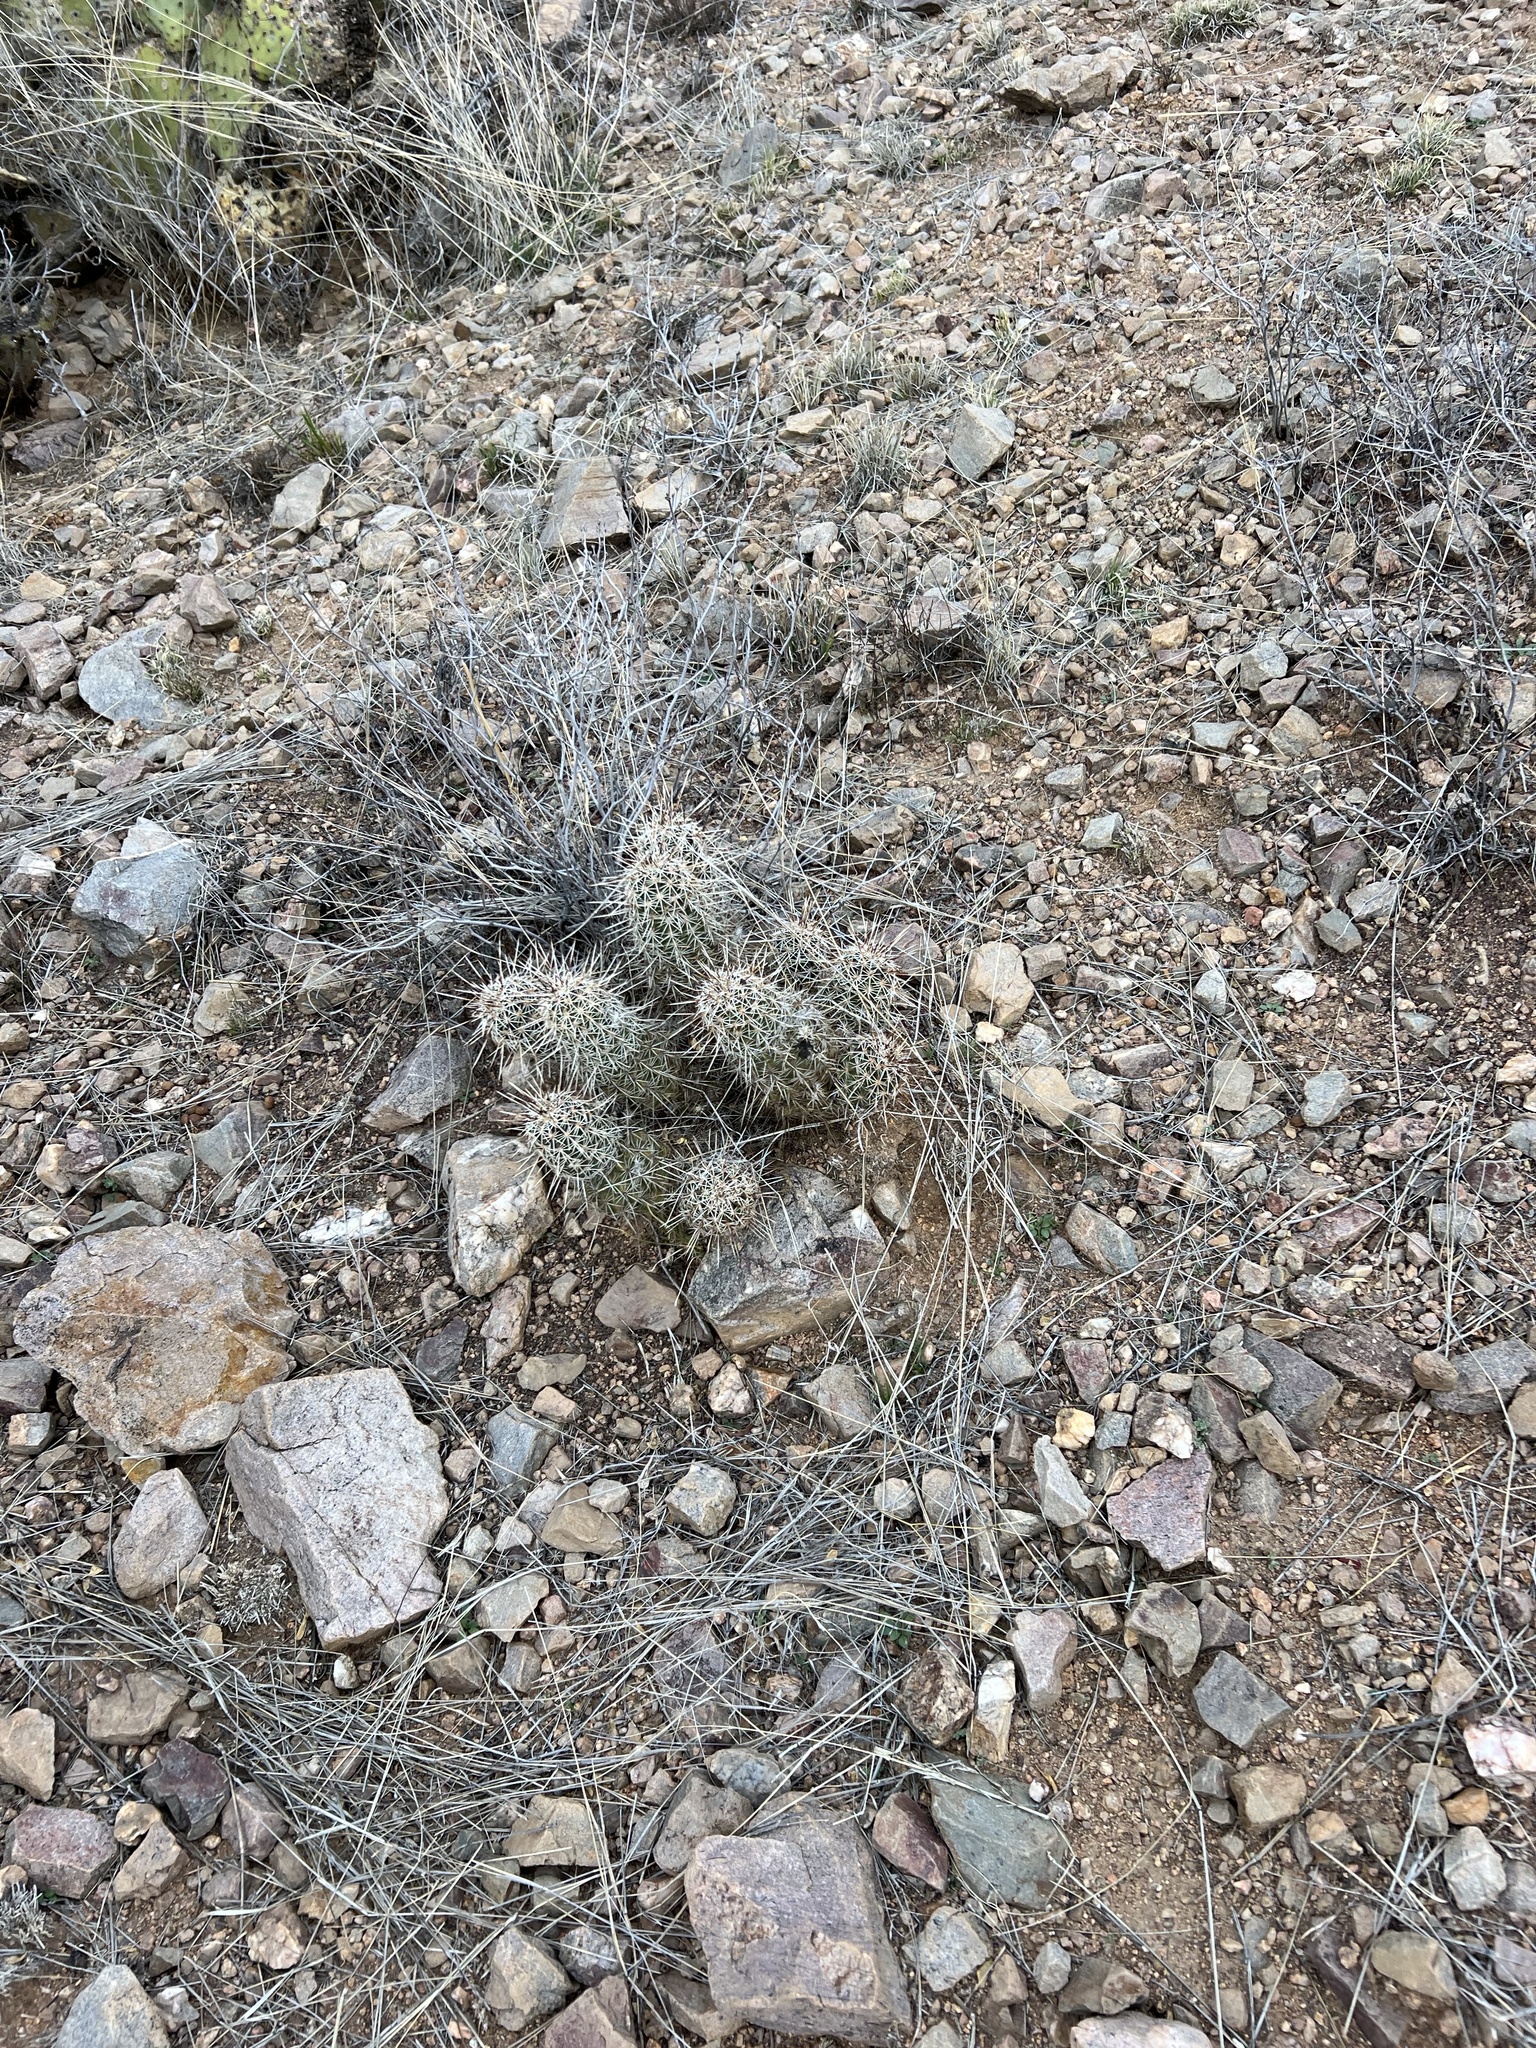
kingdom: Plantae
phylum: Tracheophyta
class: Magnoliopsida
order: Caryophyllales
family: Cactaceae
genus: Echinocereus
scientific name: Echinocereus fasciculatus
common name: Bundle hedgehog
